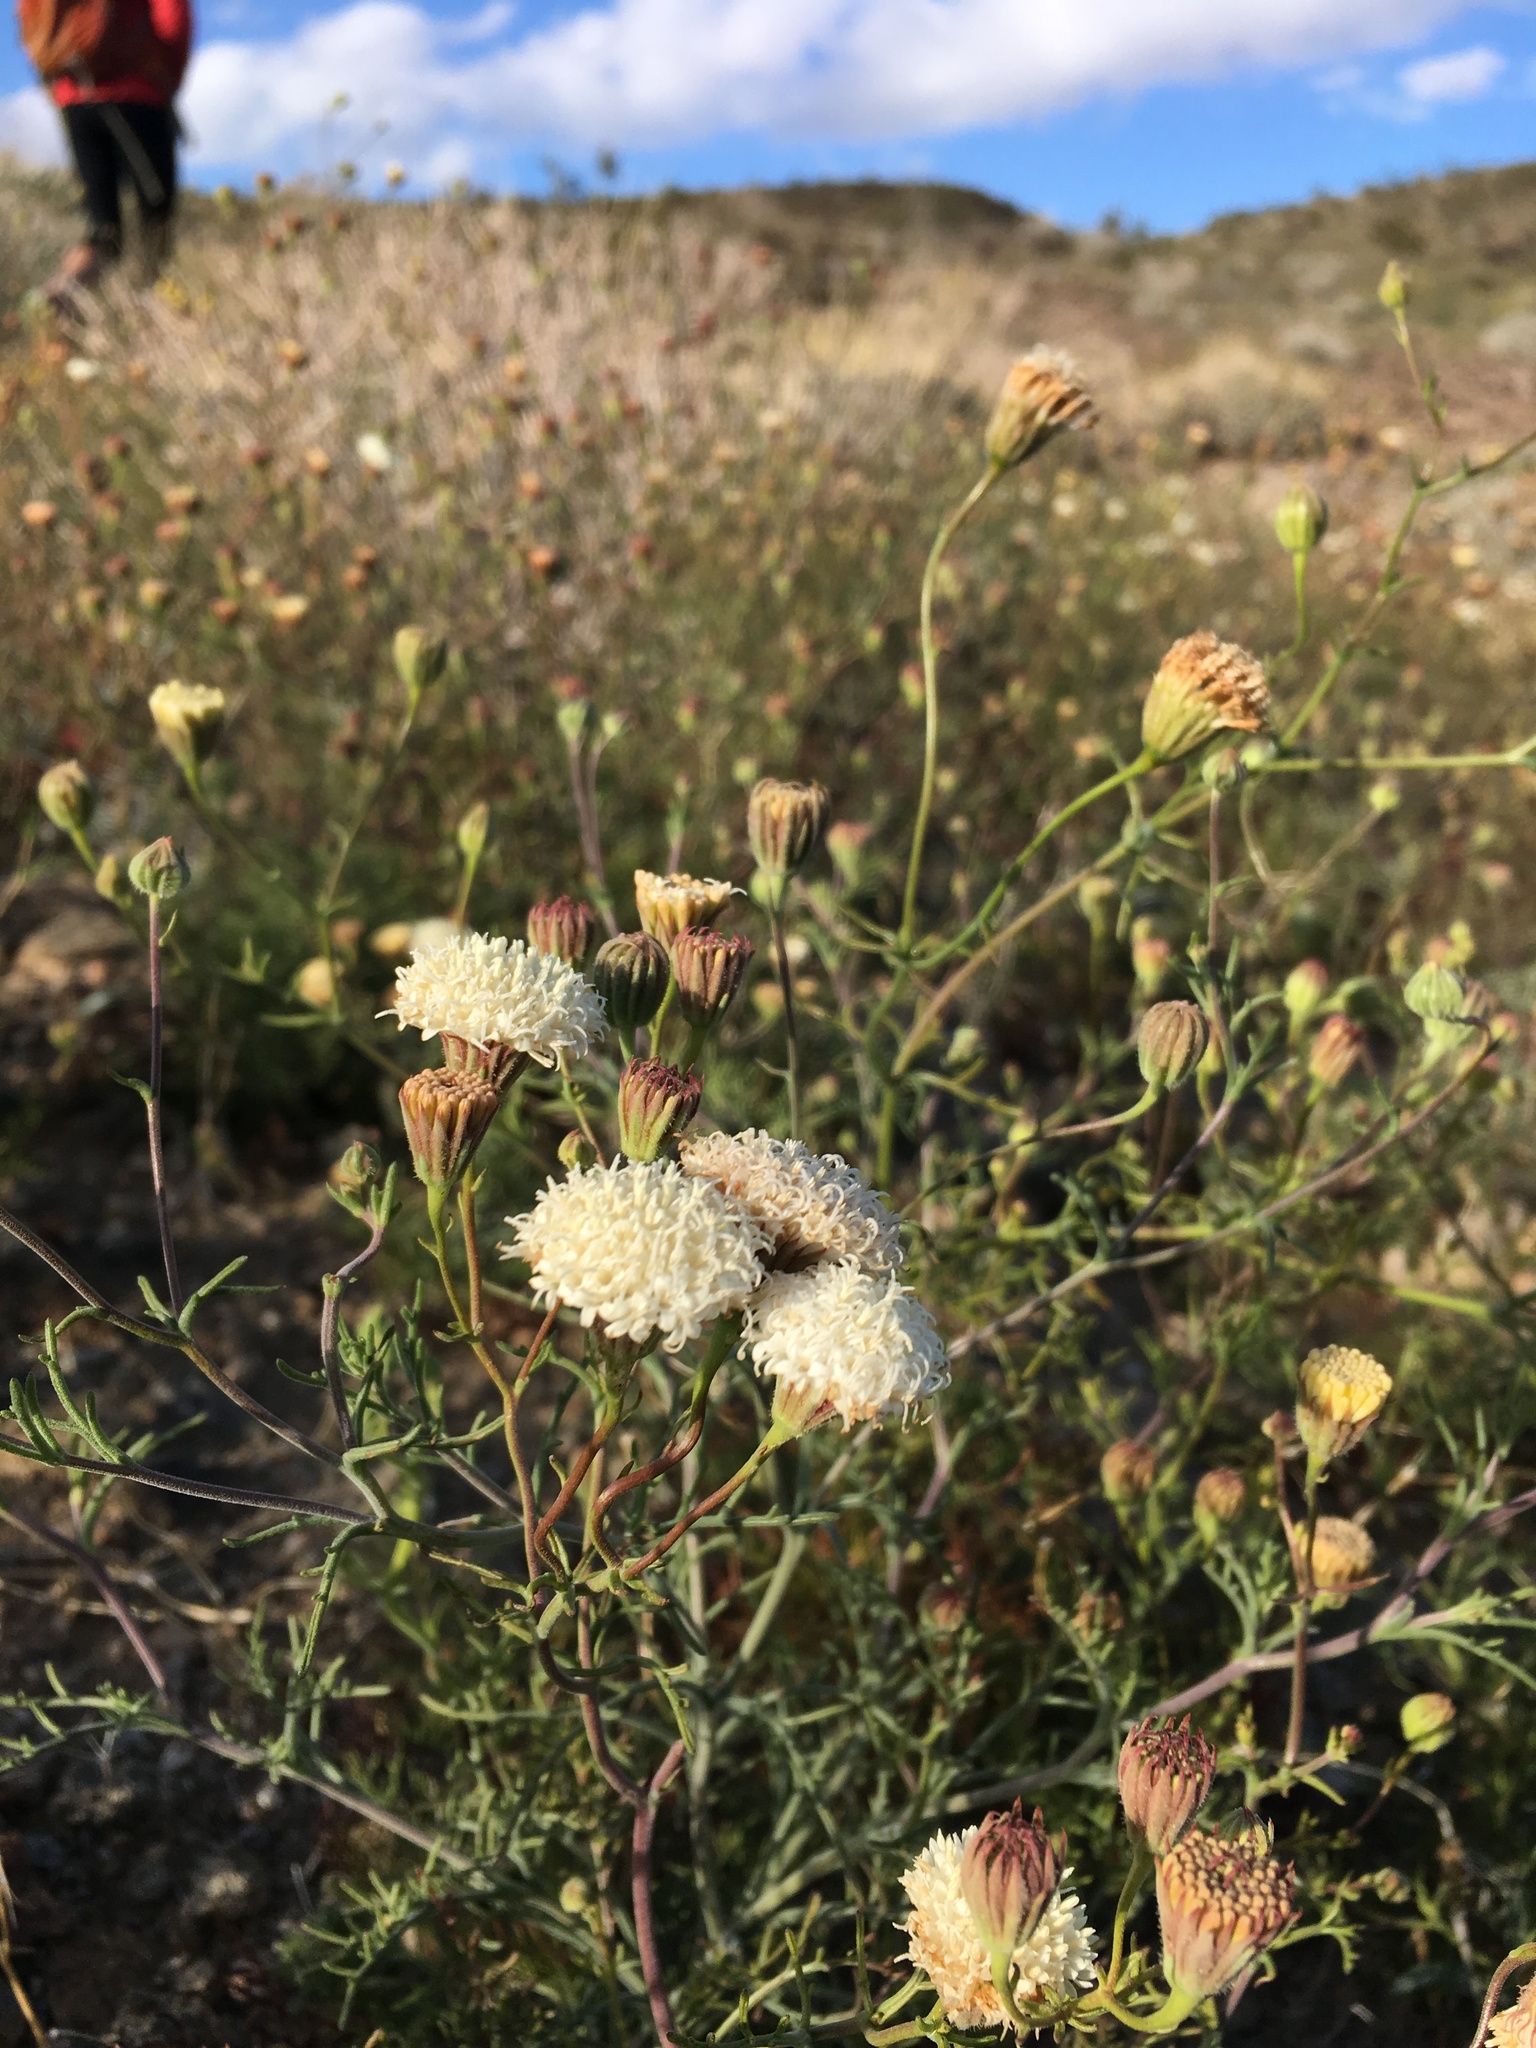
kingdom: Plantae
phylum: Tracheophyta
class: Magnoliopsida
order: Asterales
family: Asteraceae
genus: Chaenactis
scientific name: Chaenactis carphoclinia
